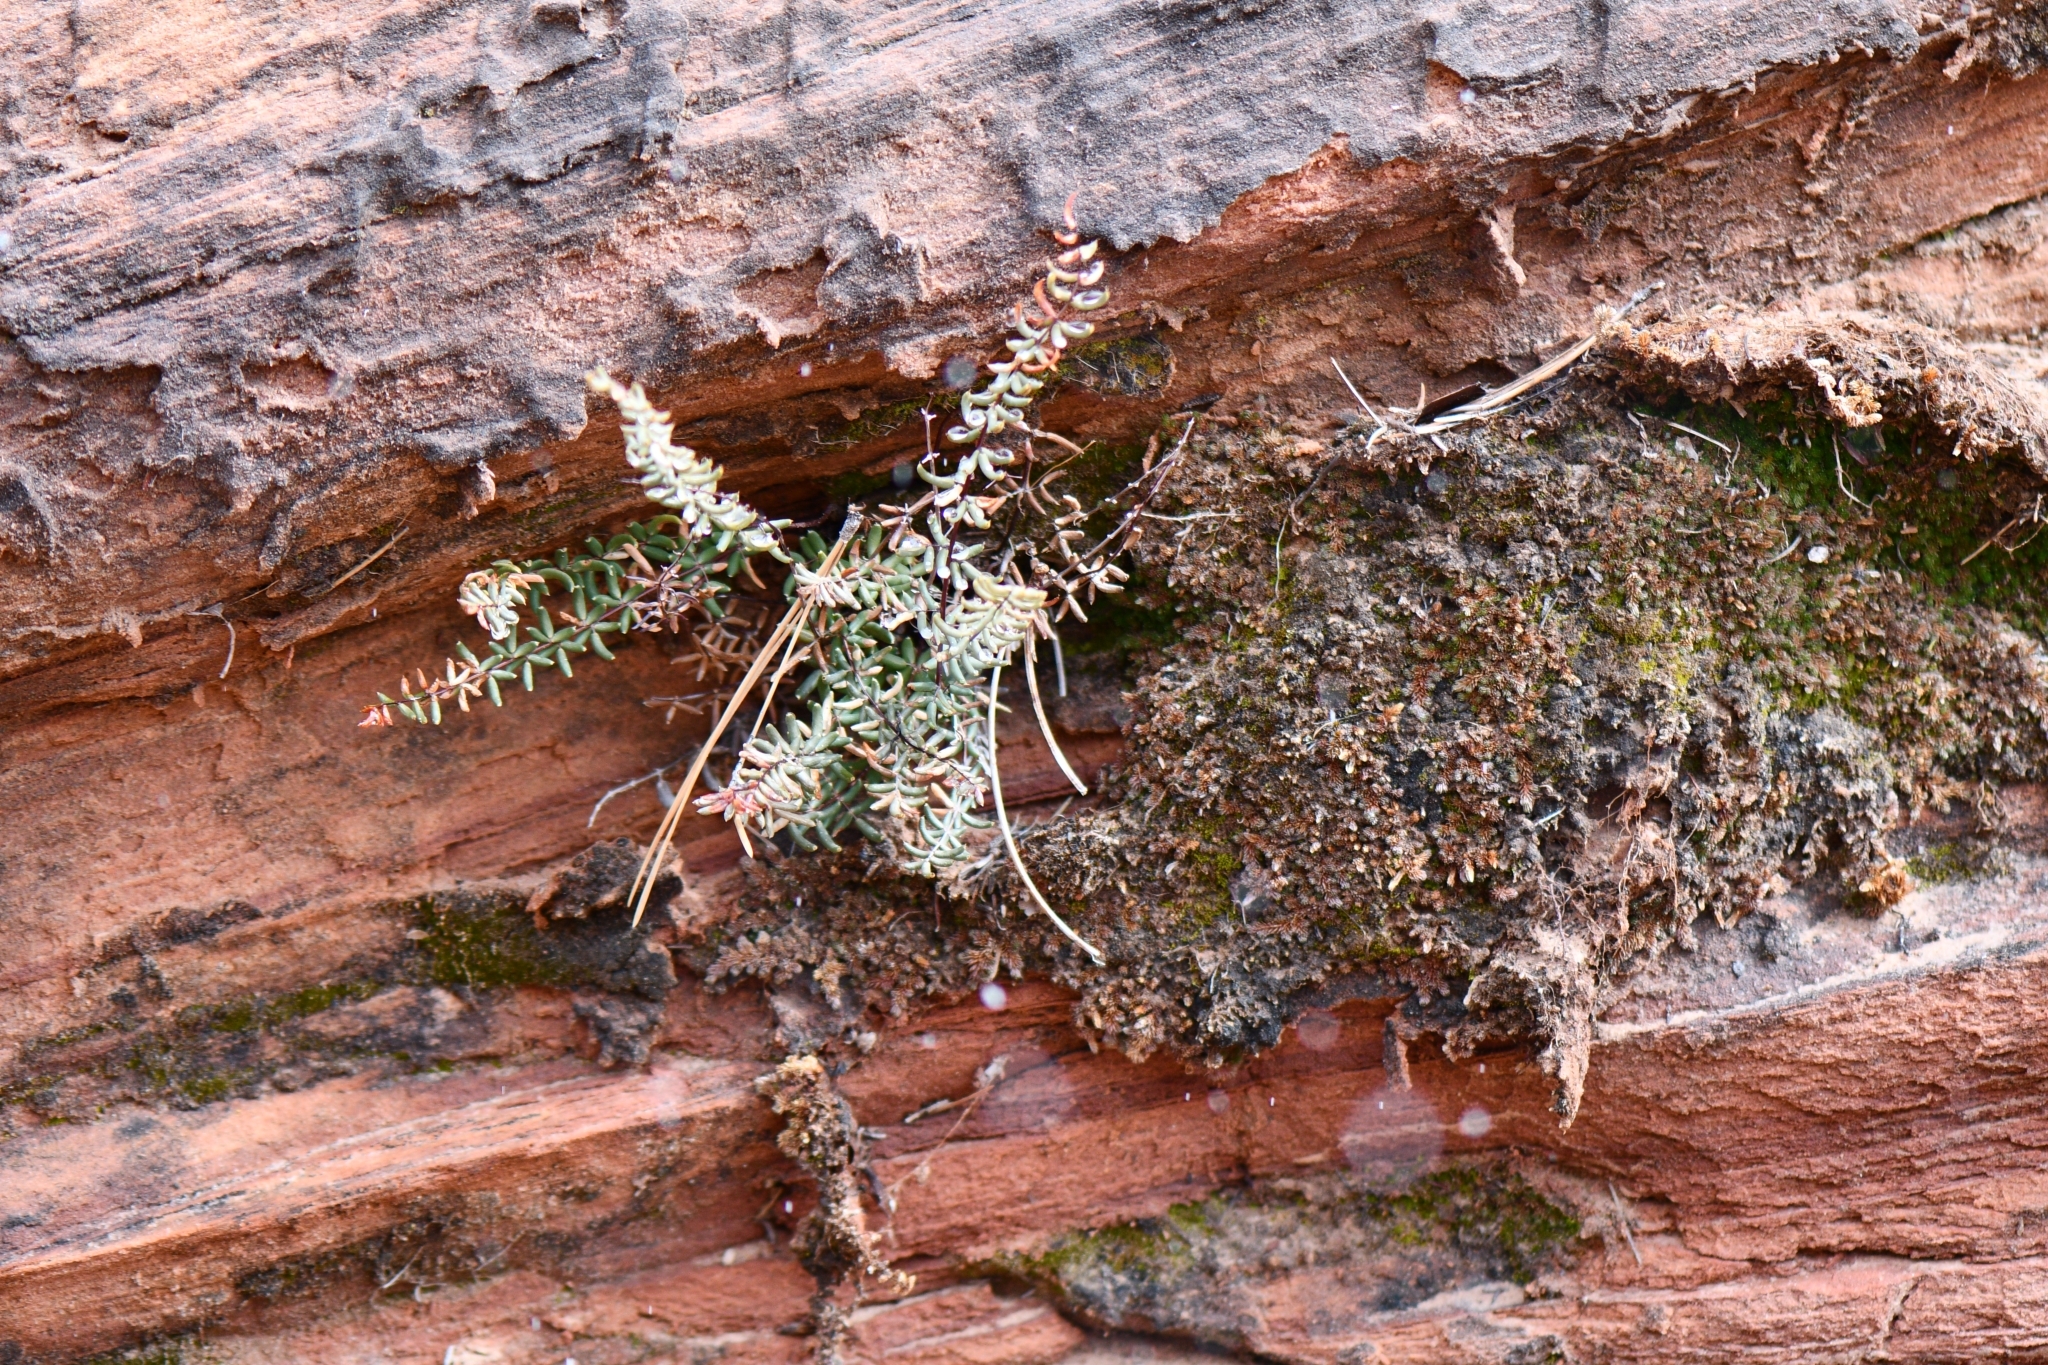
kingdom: Plantae
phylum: Tracheophyta
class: Polypodiopsida
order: Polypodiales
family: Pteridaceae
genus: Pellaea
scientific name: Pellaea wrightiana
